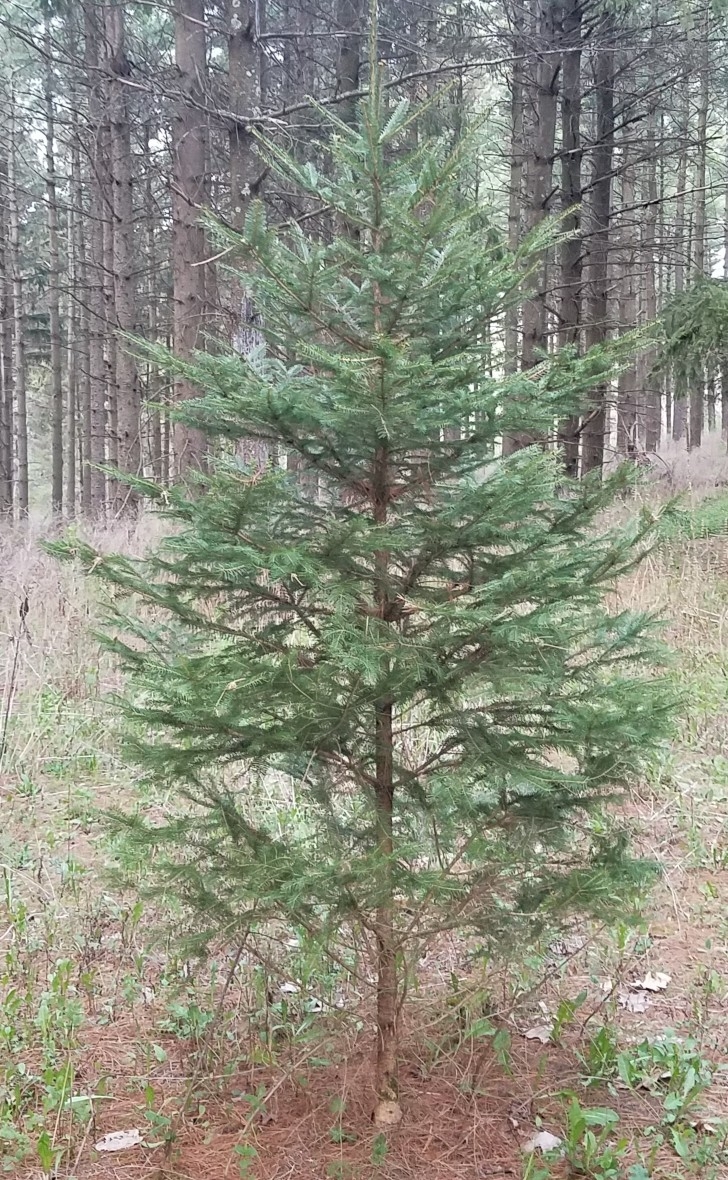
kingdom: Plantae
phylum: Tracheophyta
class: Pinopsida
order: Pinales
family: Pinaceae
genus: Abies
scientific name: Abies balsamea
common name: Balsam fir
